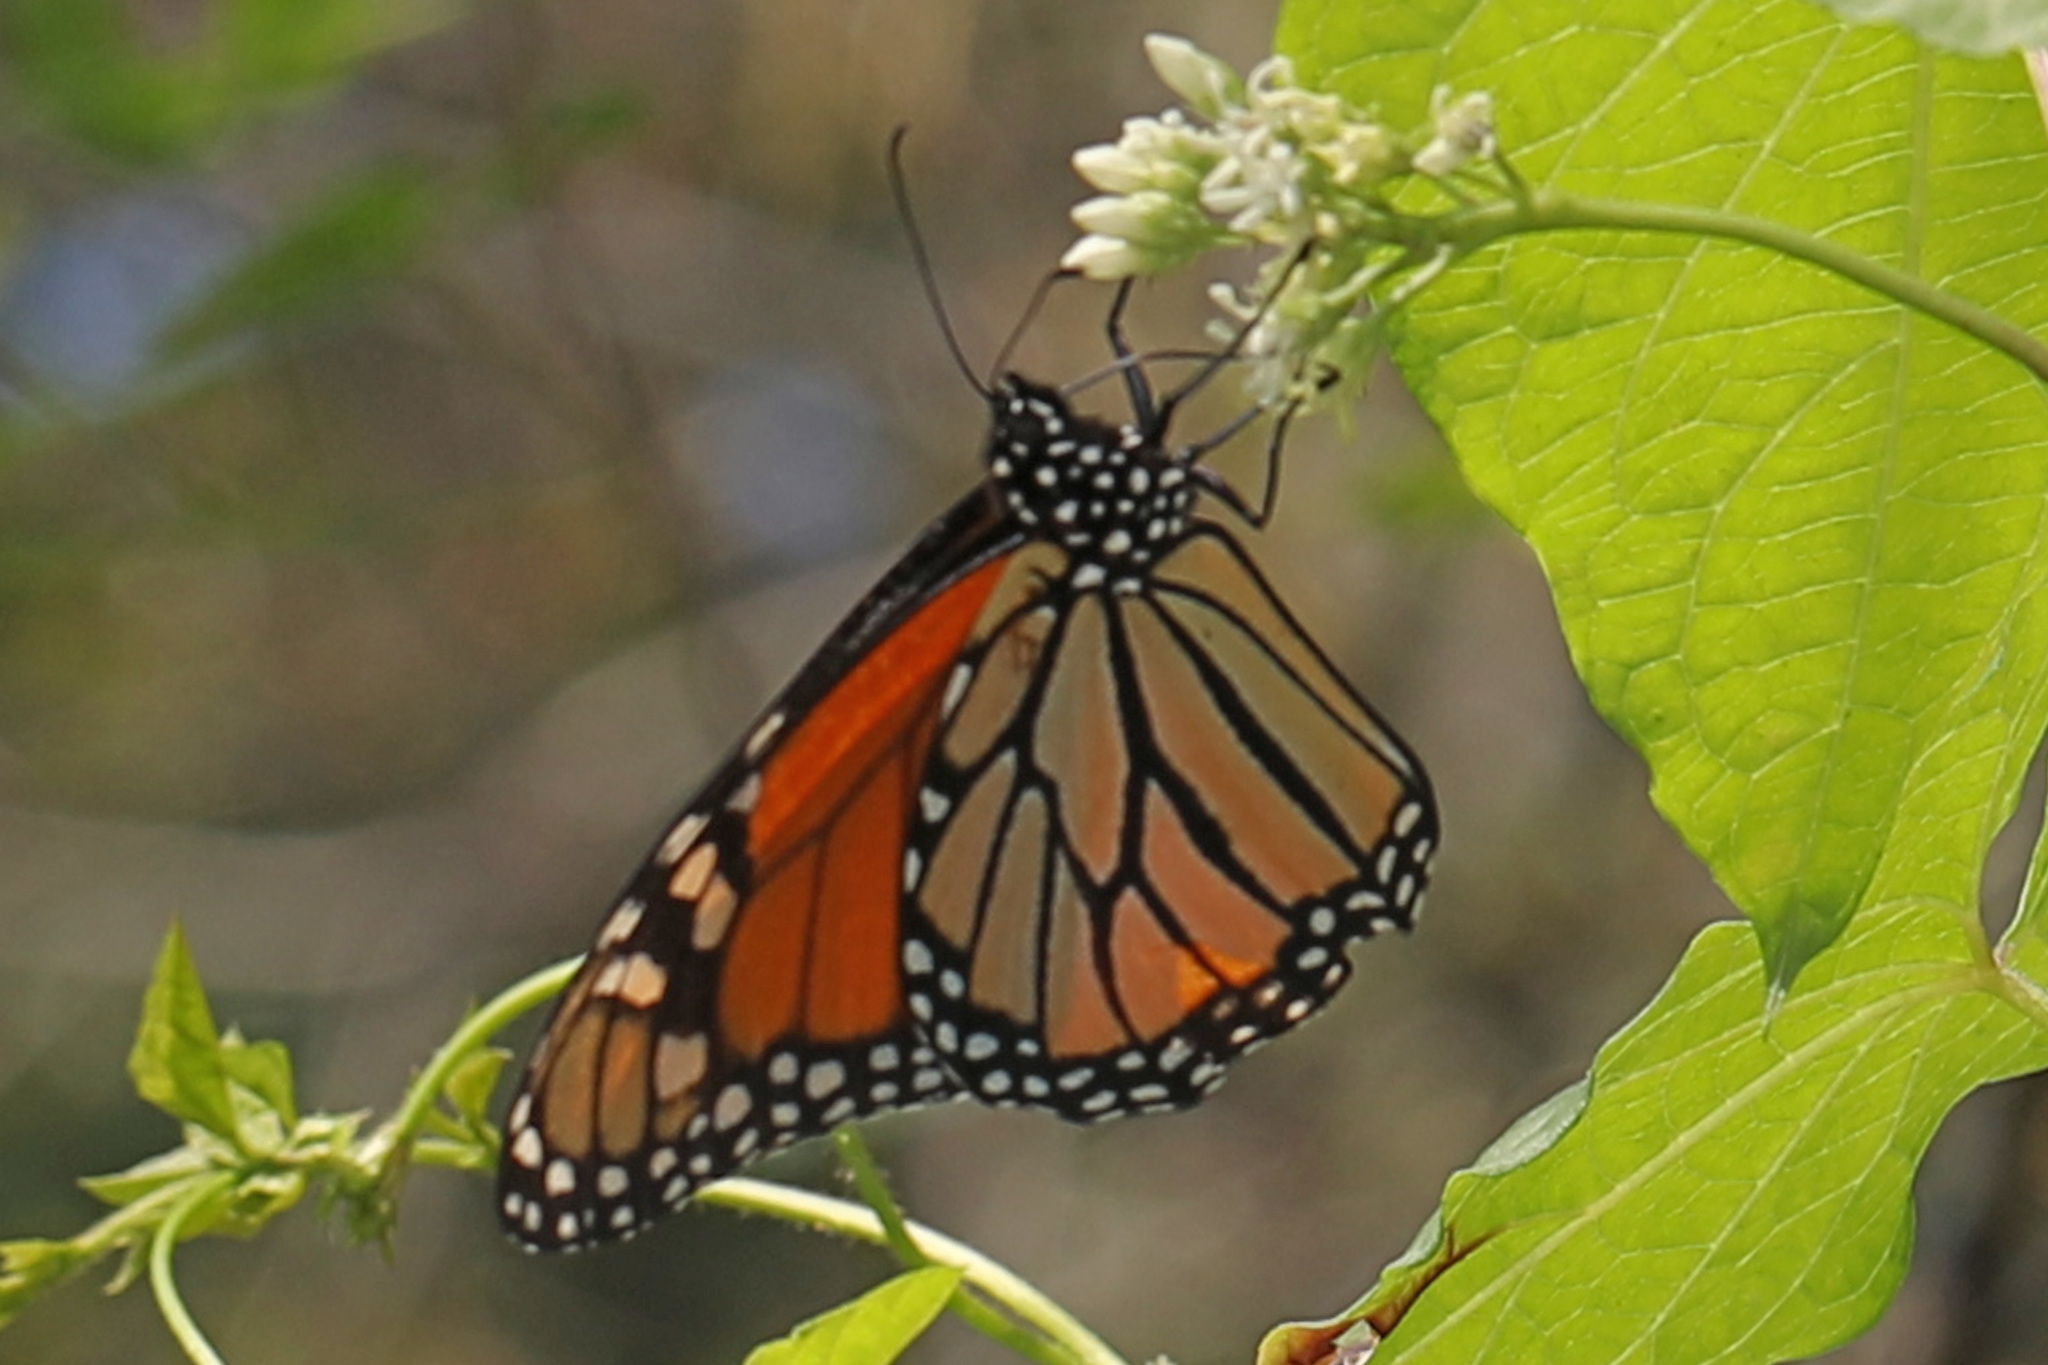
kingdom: Animalia
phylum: Arthropoda
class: Insecta
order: Lepidoptera
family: Nymphalidae
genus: Danaus
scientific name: Danaus plexippus
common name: Monarch
